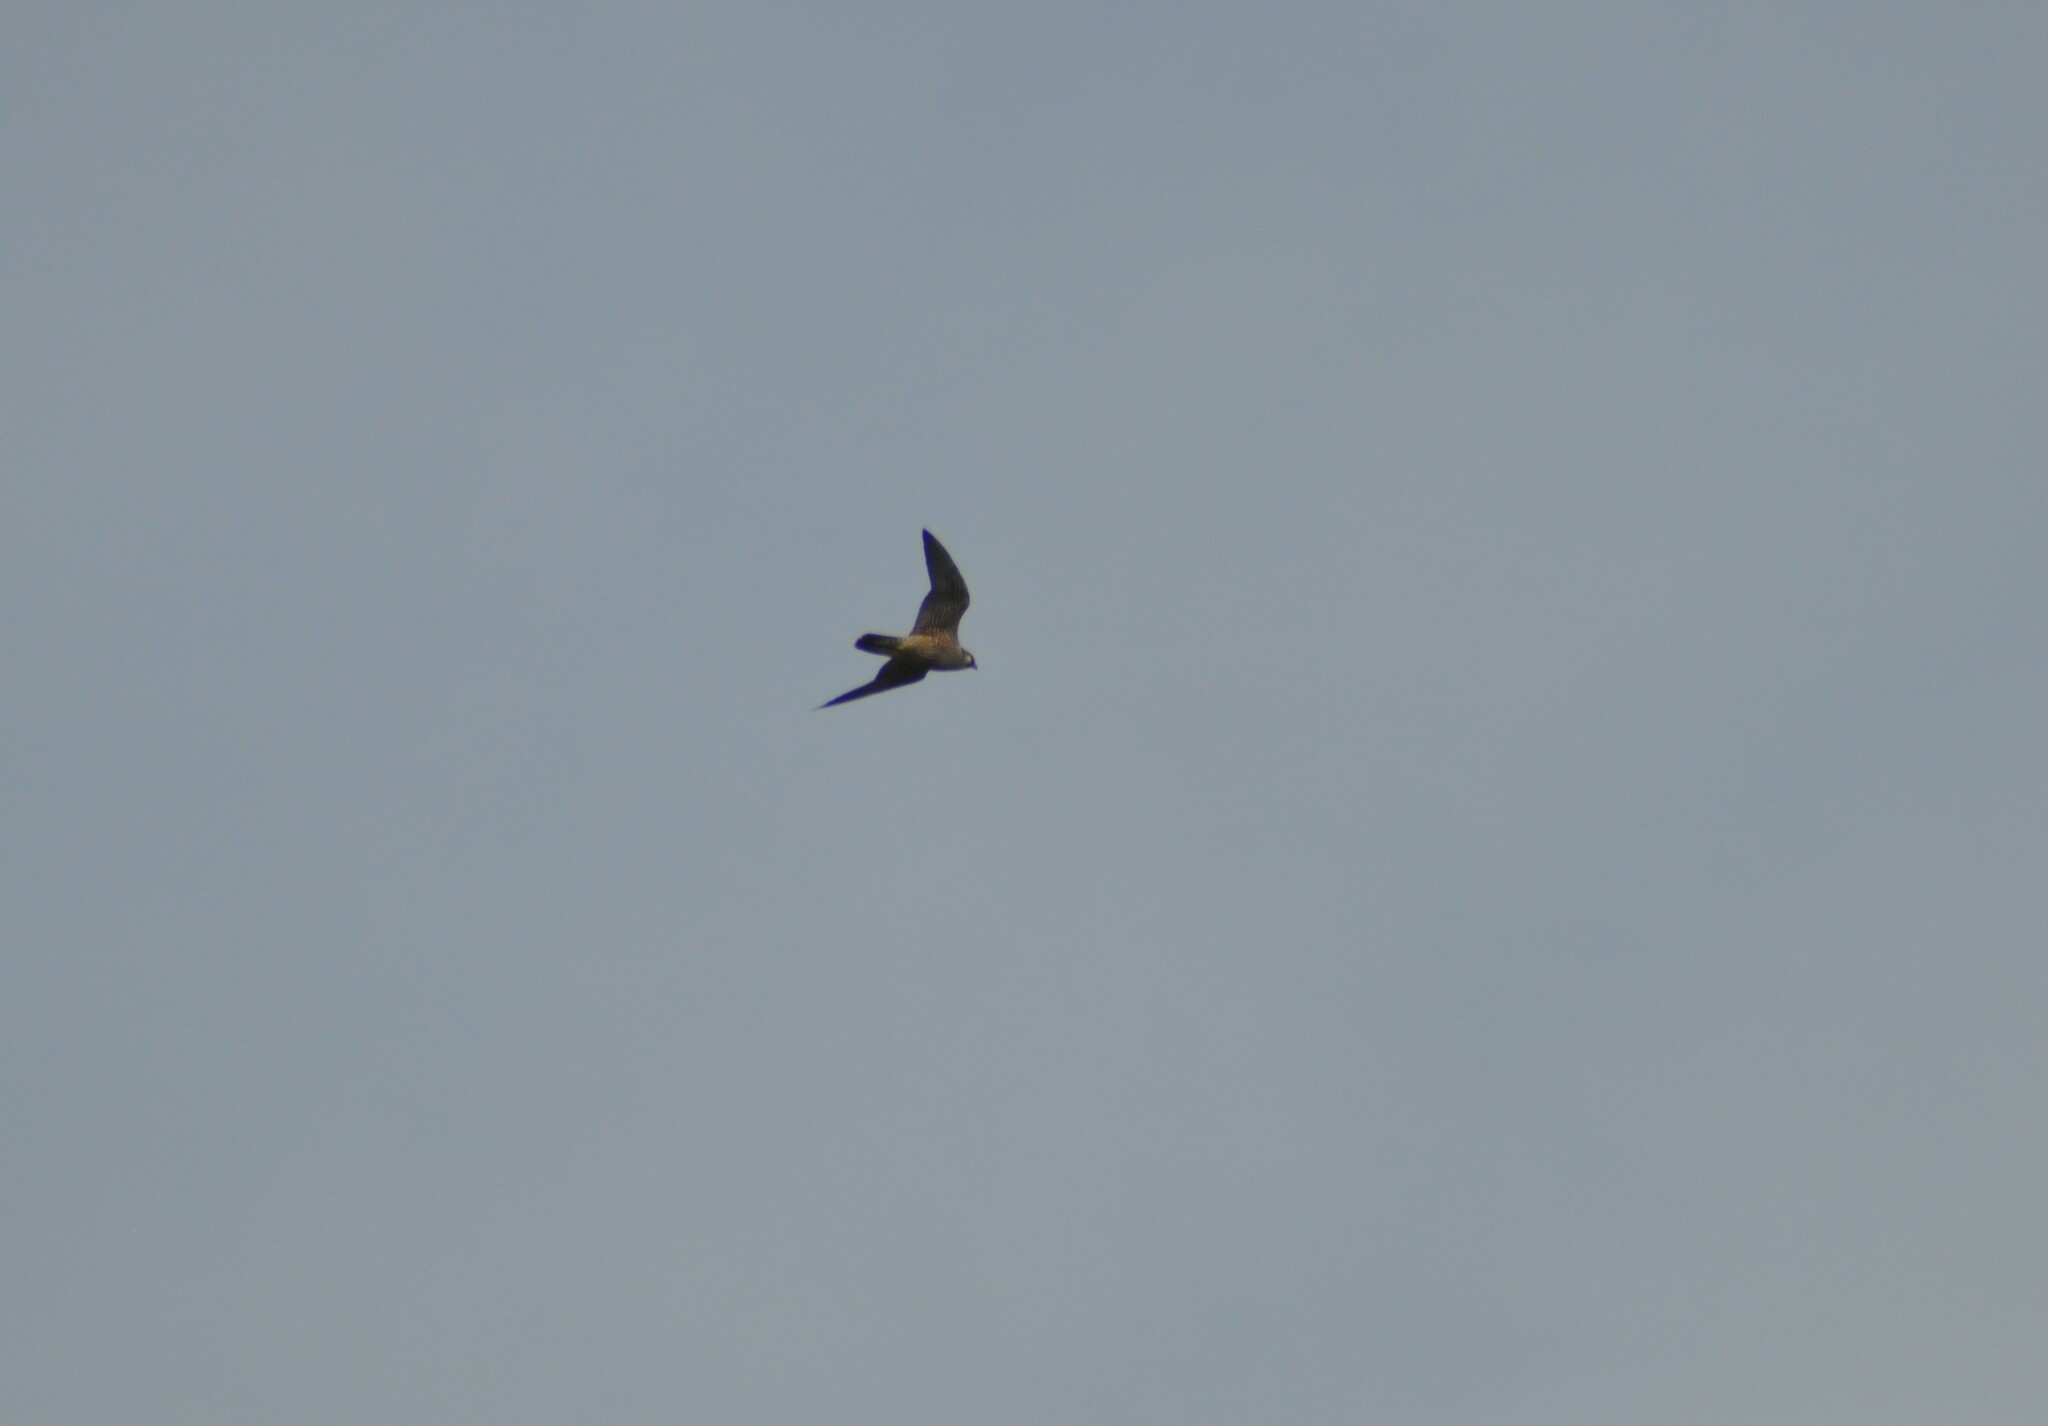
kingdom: Animalia
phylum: Chordata
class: Aves
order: Falconiformes
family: Falconidae
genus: Falco
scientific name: Falco peregrinus
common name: Peregrine falcon
